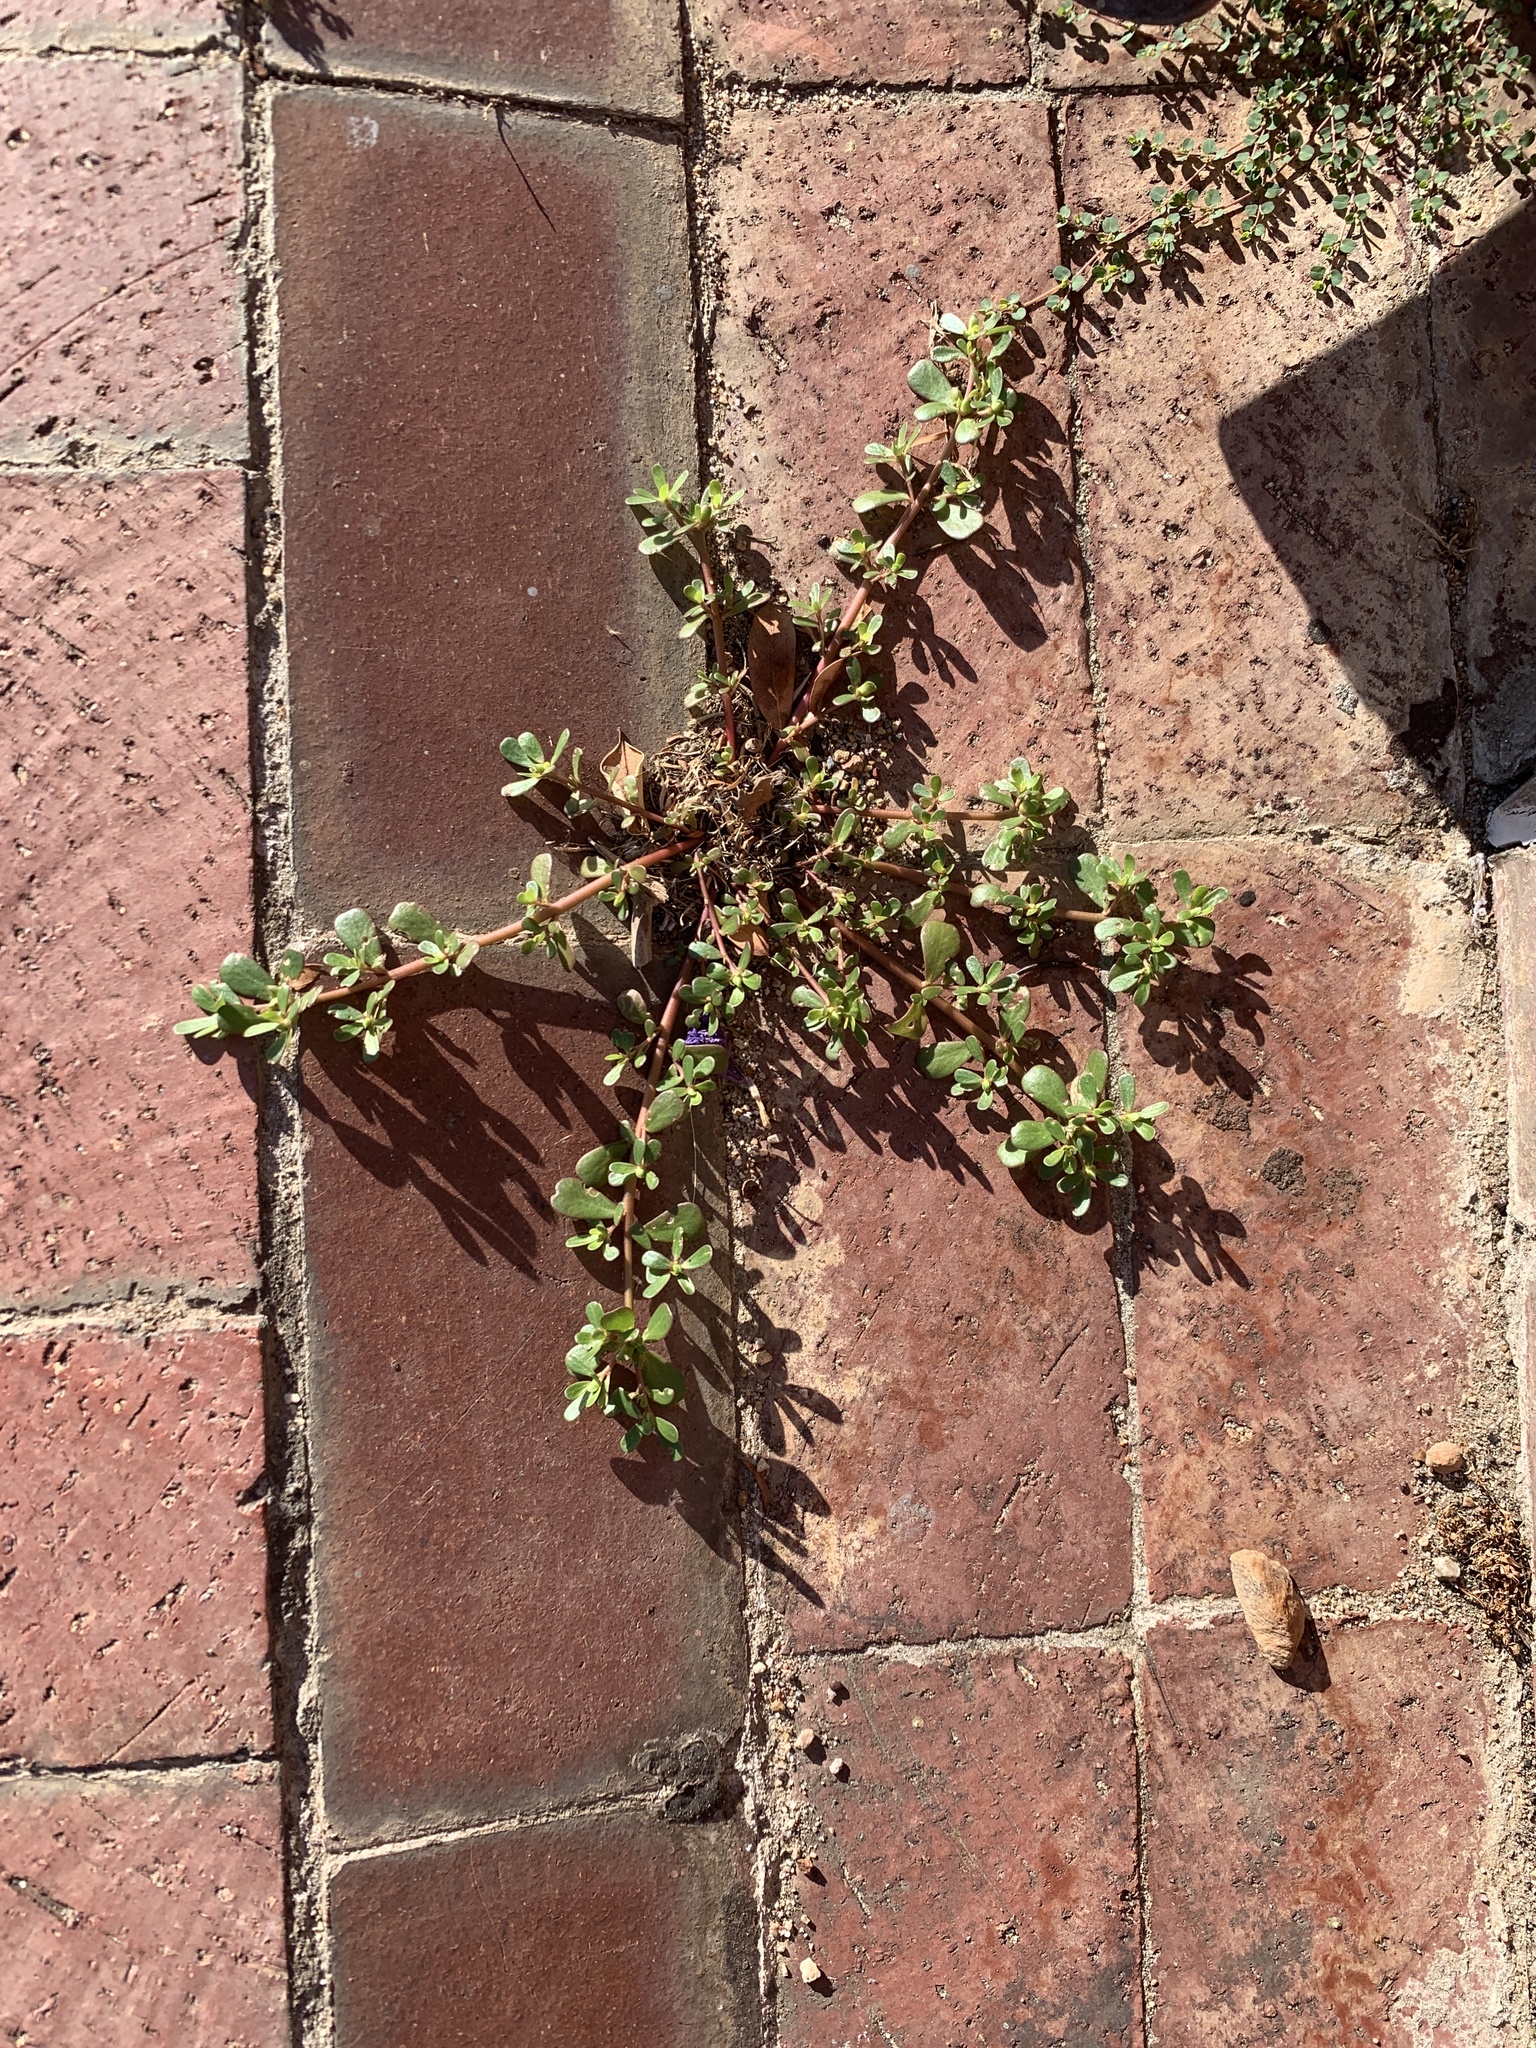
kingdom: Plantae
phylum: Tracheophyta
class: Magnoliopsida
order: Caryophyllales
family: Portulacaceae
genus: Portulaca
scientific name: Portulaca oleracea
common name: Common purslane
